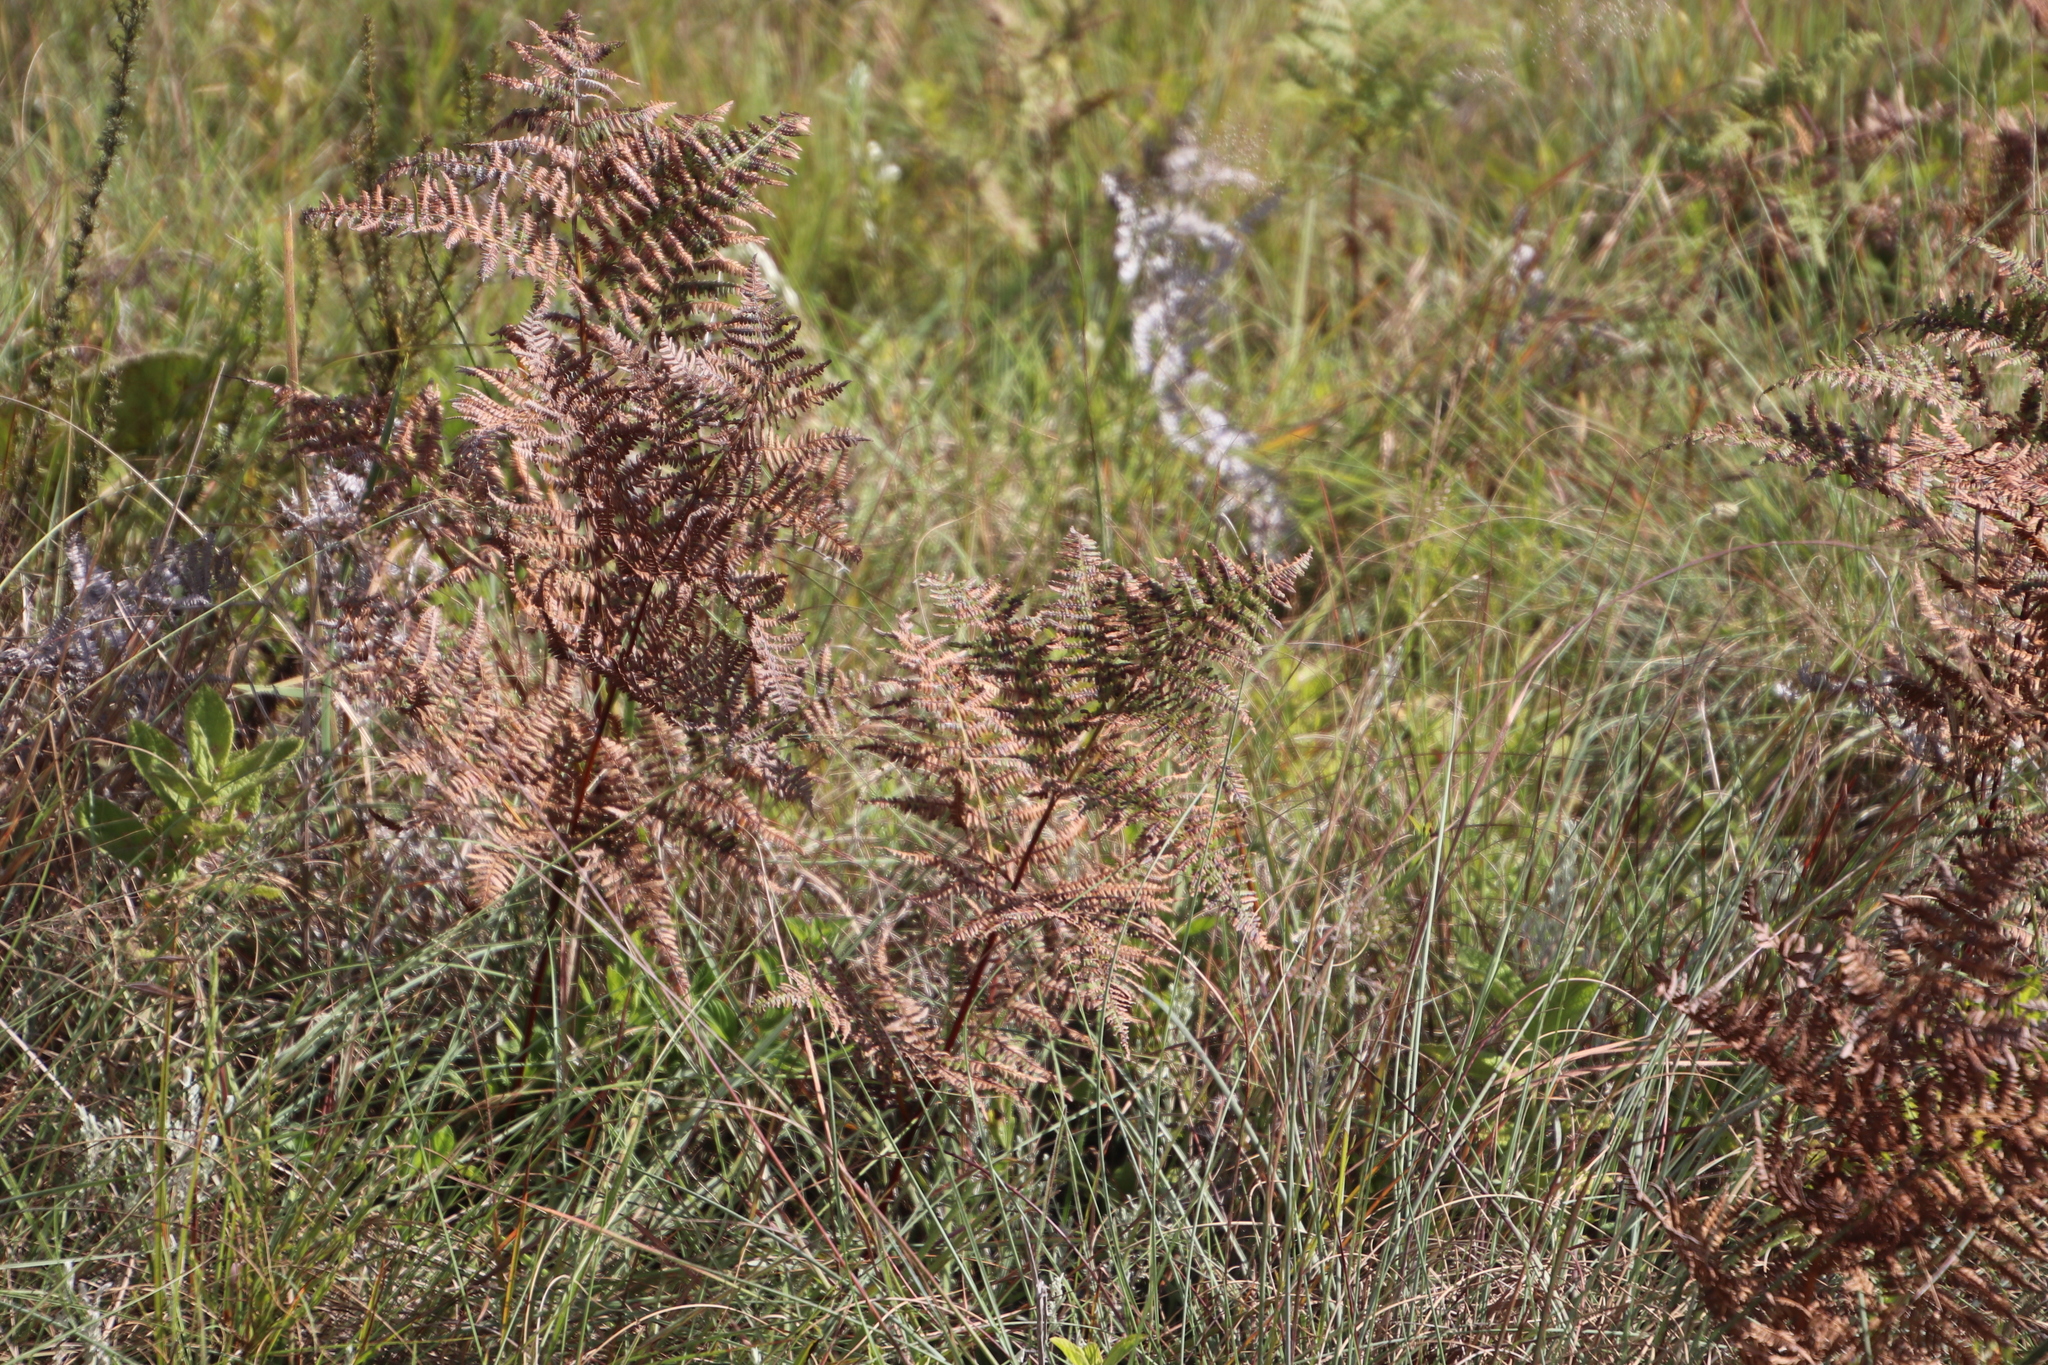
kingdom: Plantae
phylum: Tracheophyta
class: Polypodiopsida
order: Polypodiales
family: Dennstaedtiaceae
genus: Pteridium
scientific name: Pteridium aquilinum
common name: Bracken
